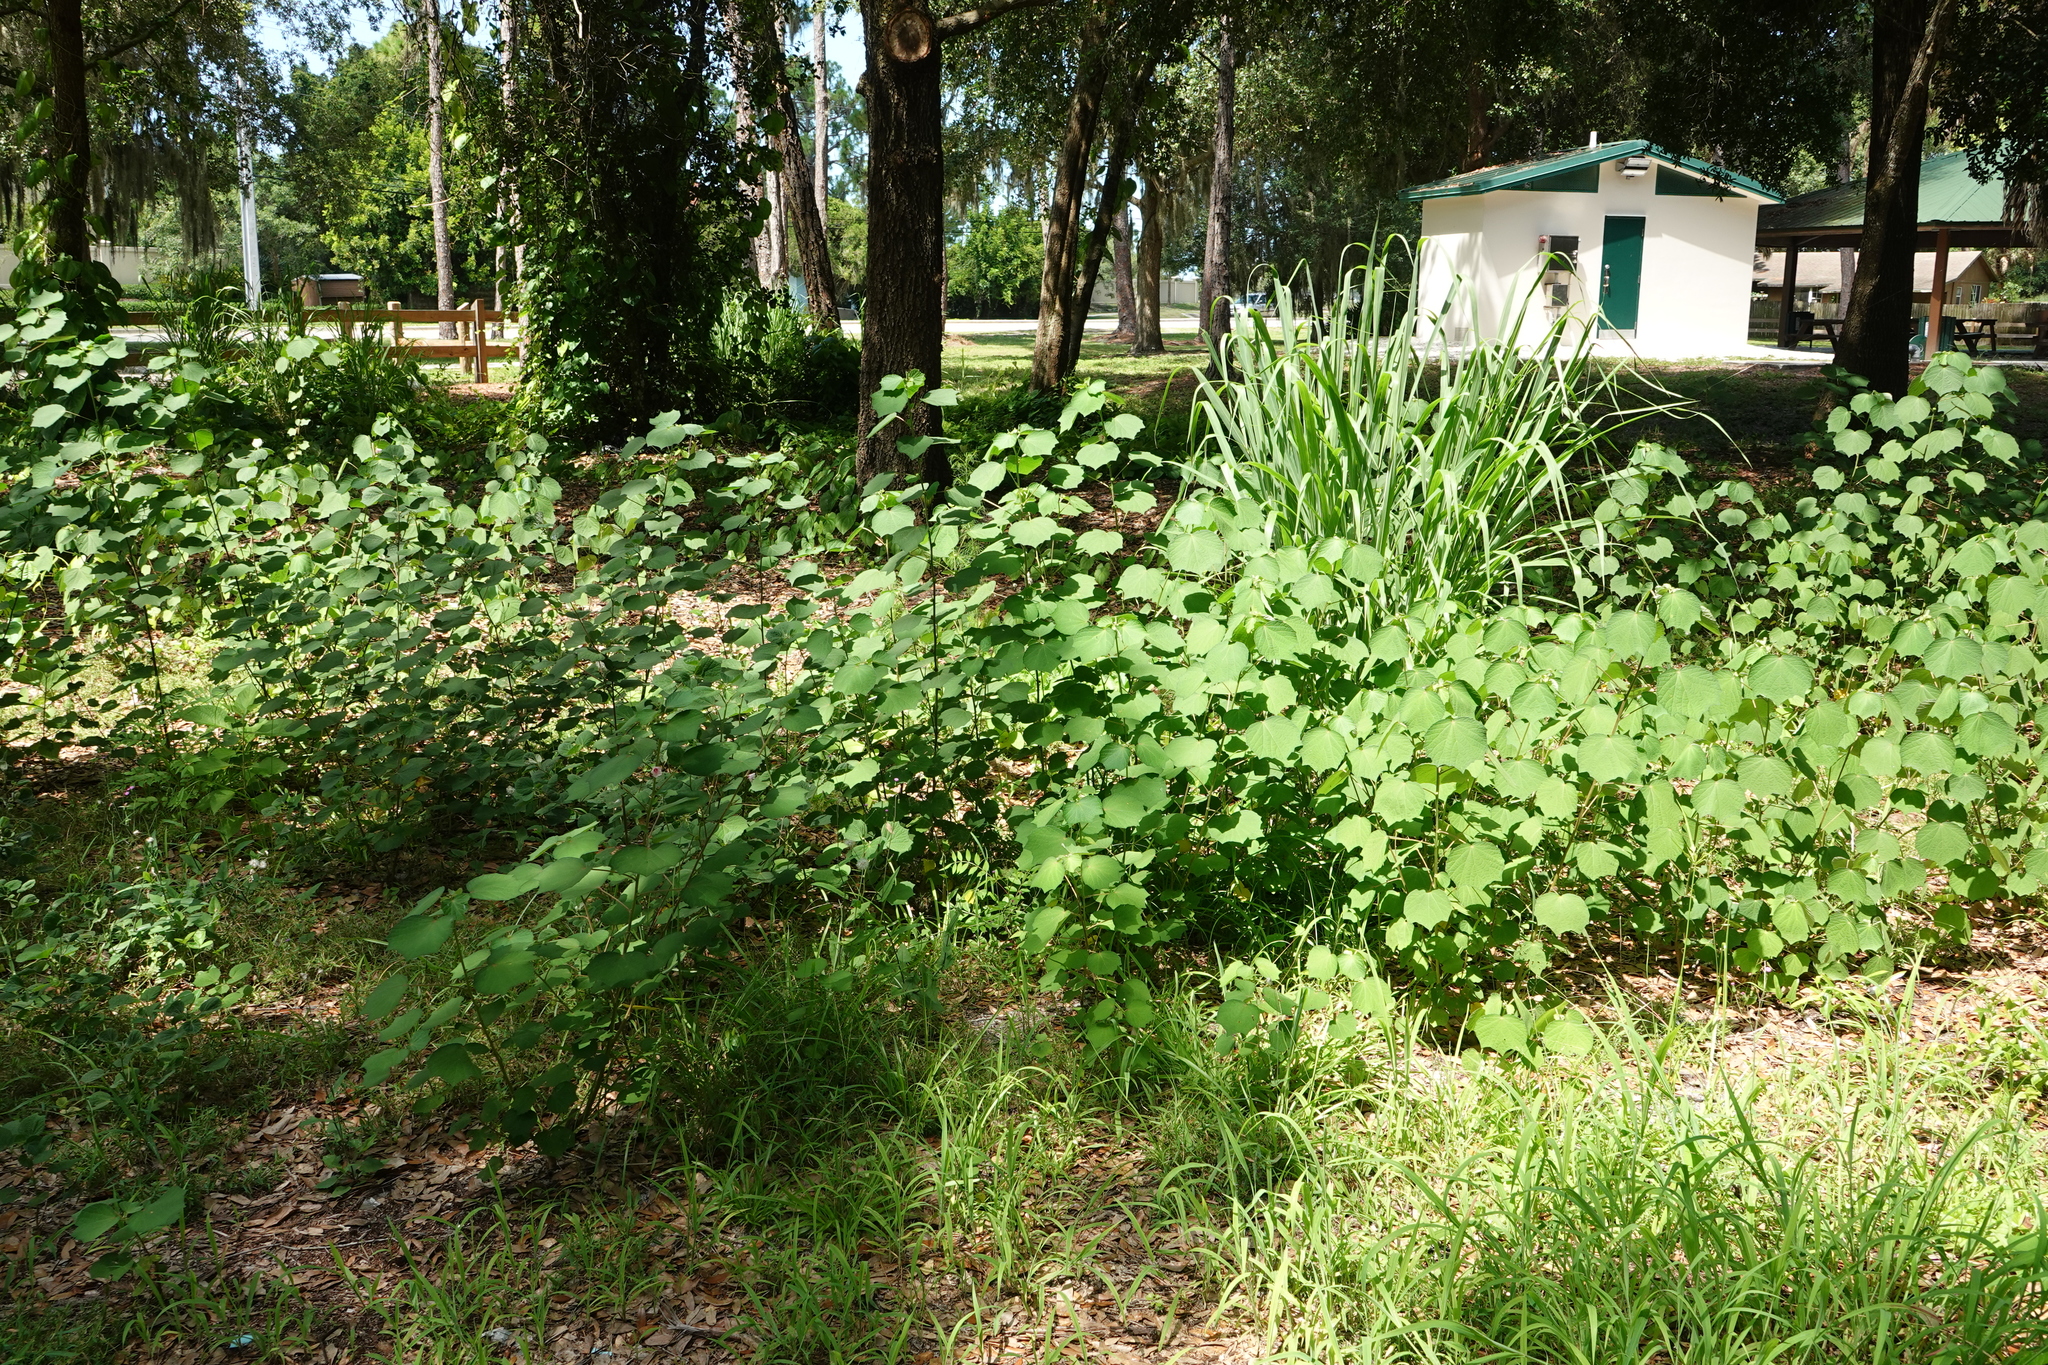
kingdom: Plantae
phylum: Tracheophyta
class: Magnoliopsida
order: Malvales
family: Malvaceae
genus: Urena
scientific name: Urena lobata
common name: Caesarweed
